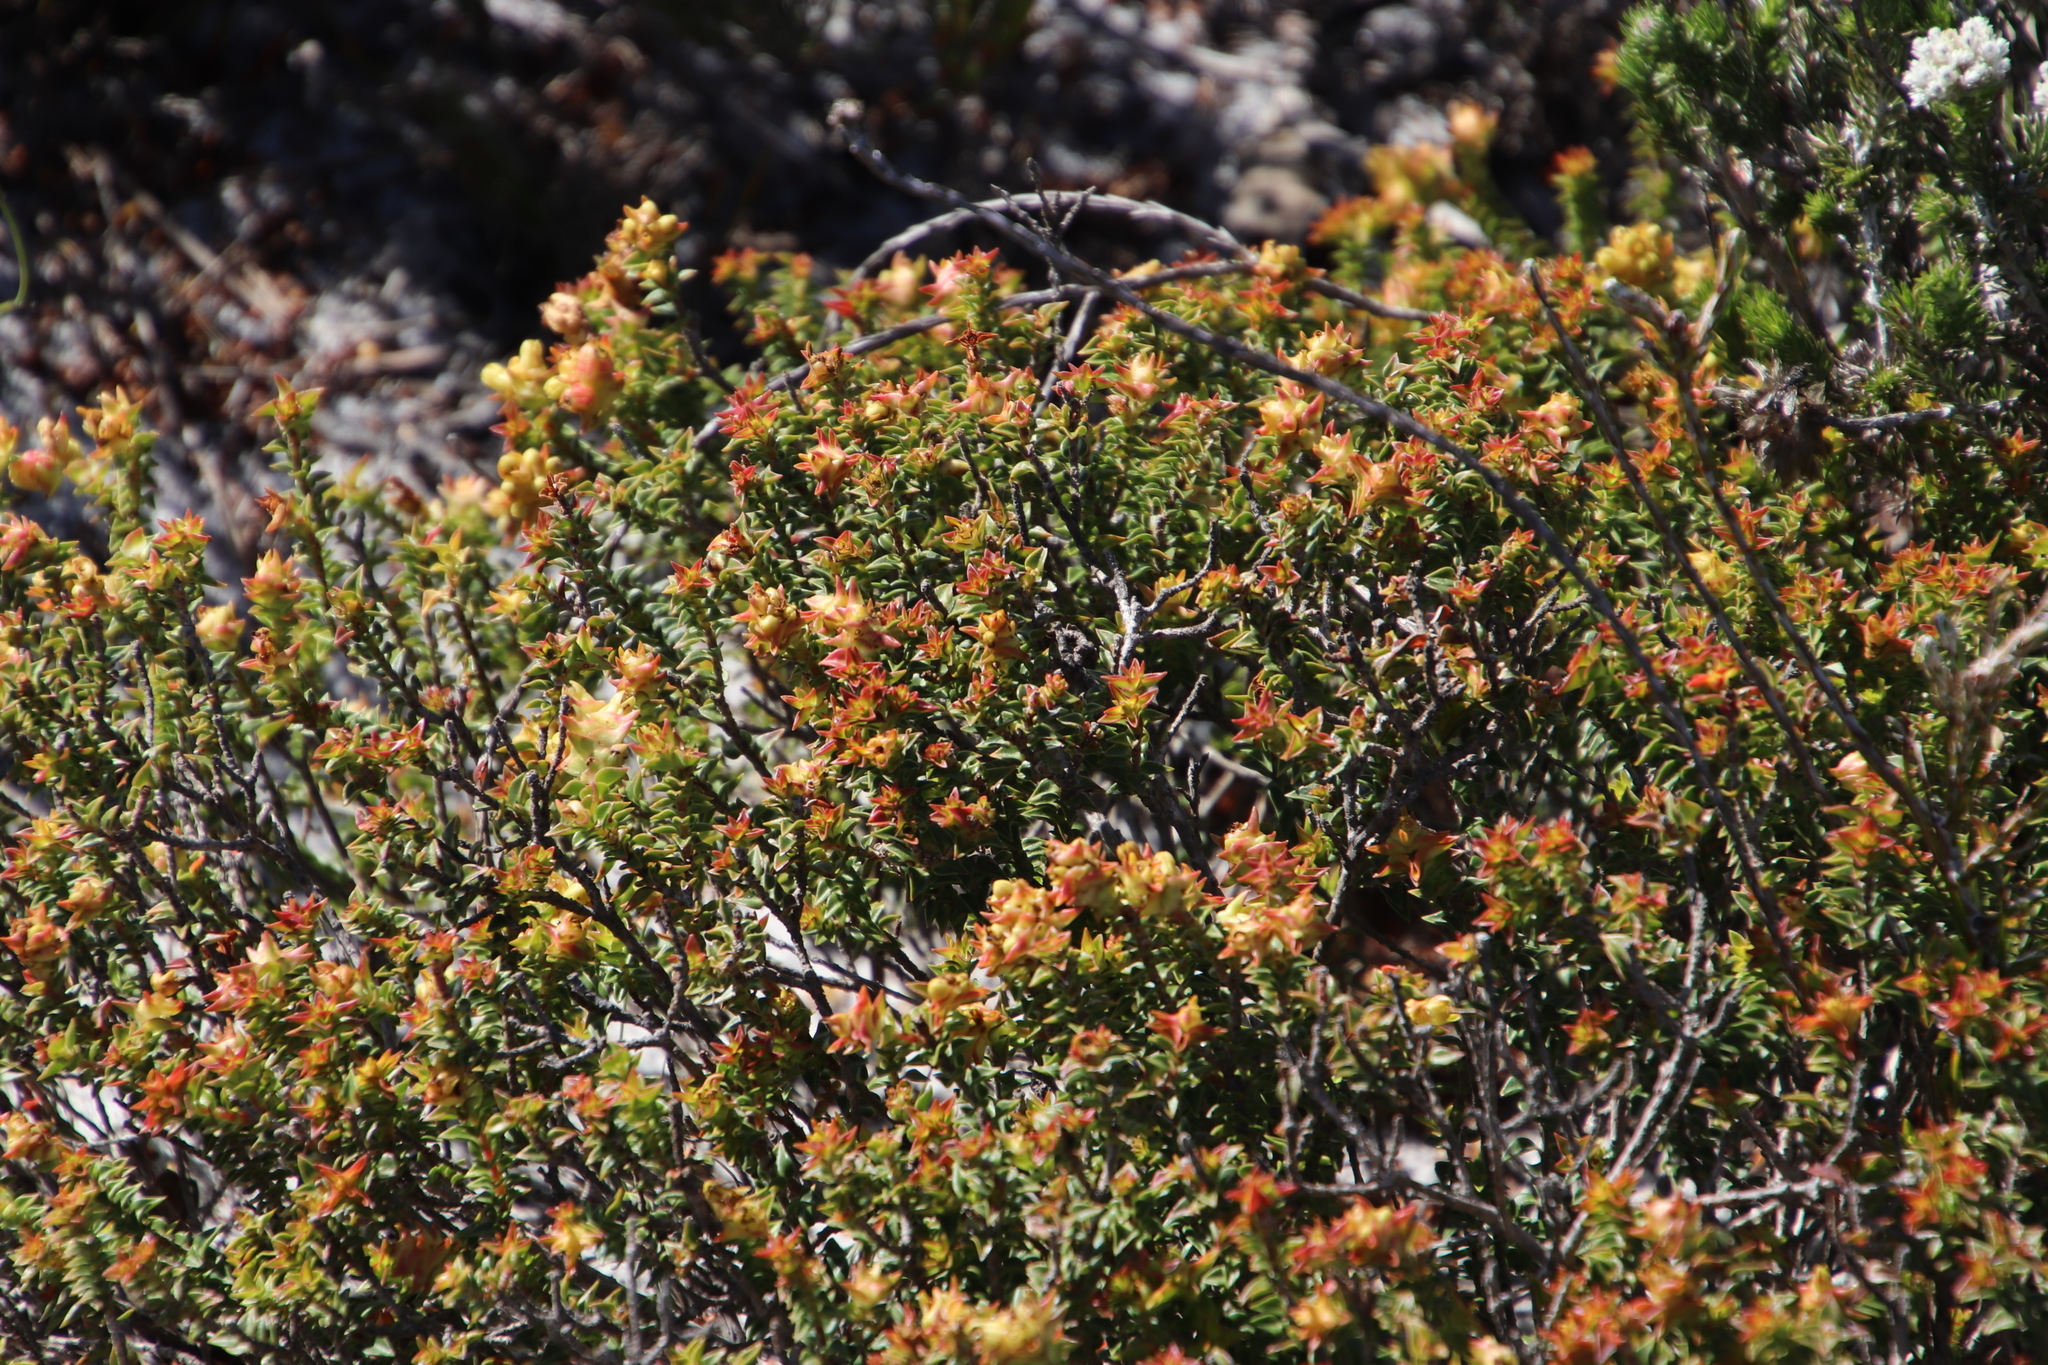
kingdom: Plantae
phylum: Tracheophyta
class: Magnoliopsida
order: Myrtales
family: Penaeaceae
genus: Penaea
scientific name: Penaea mucronata
